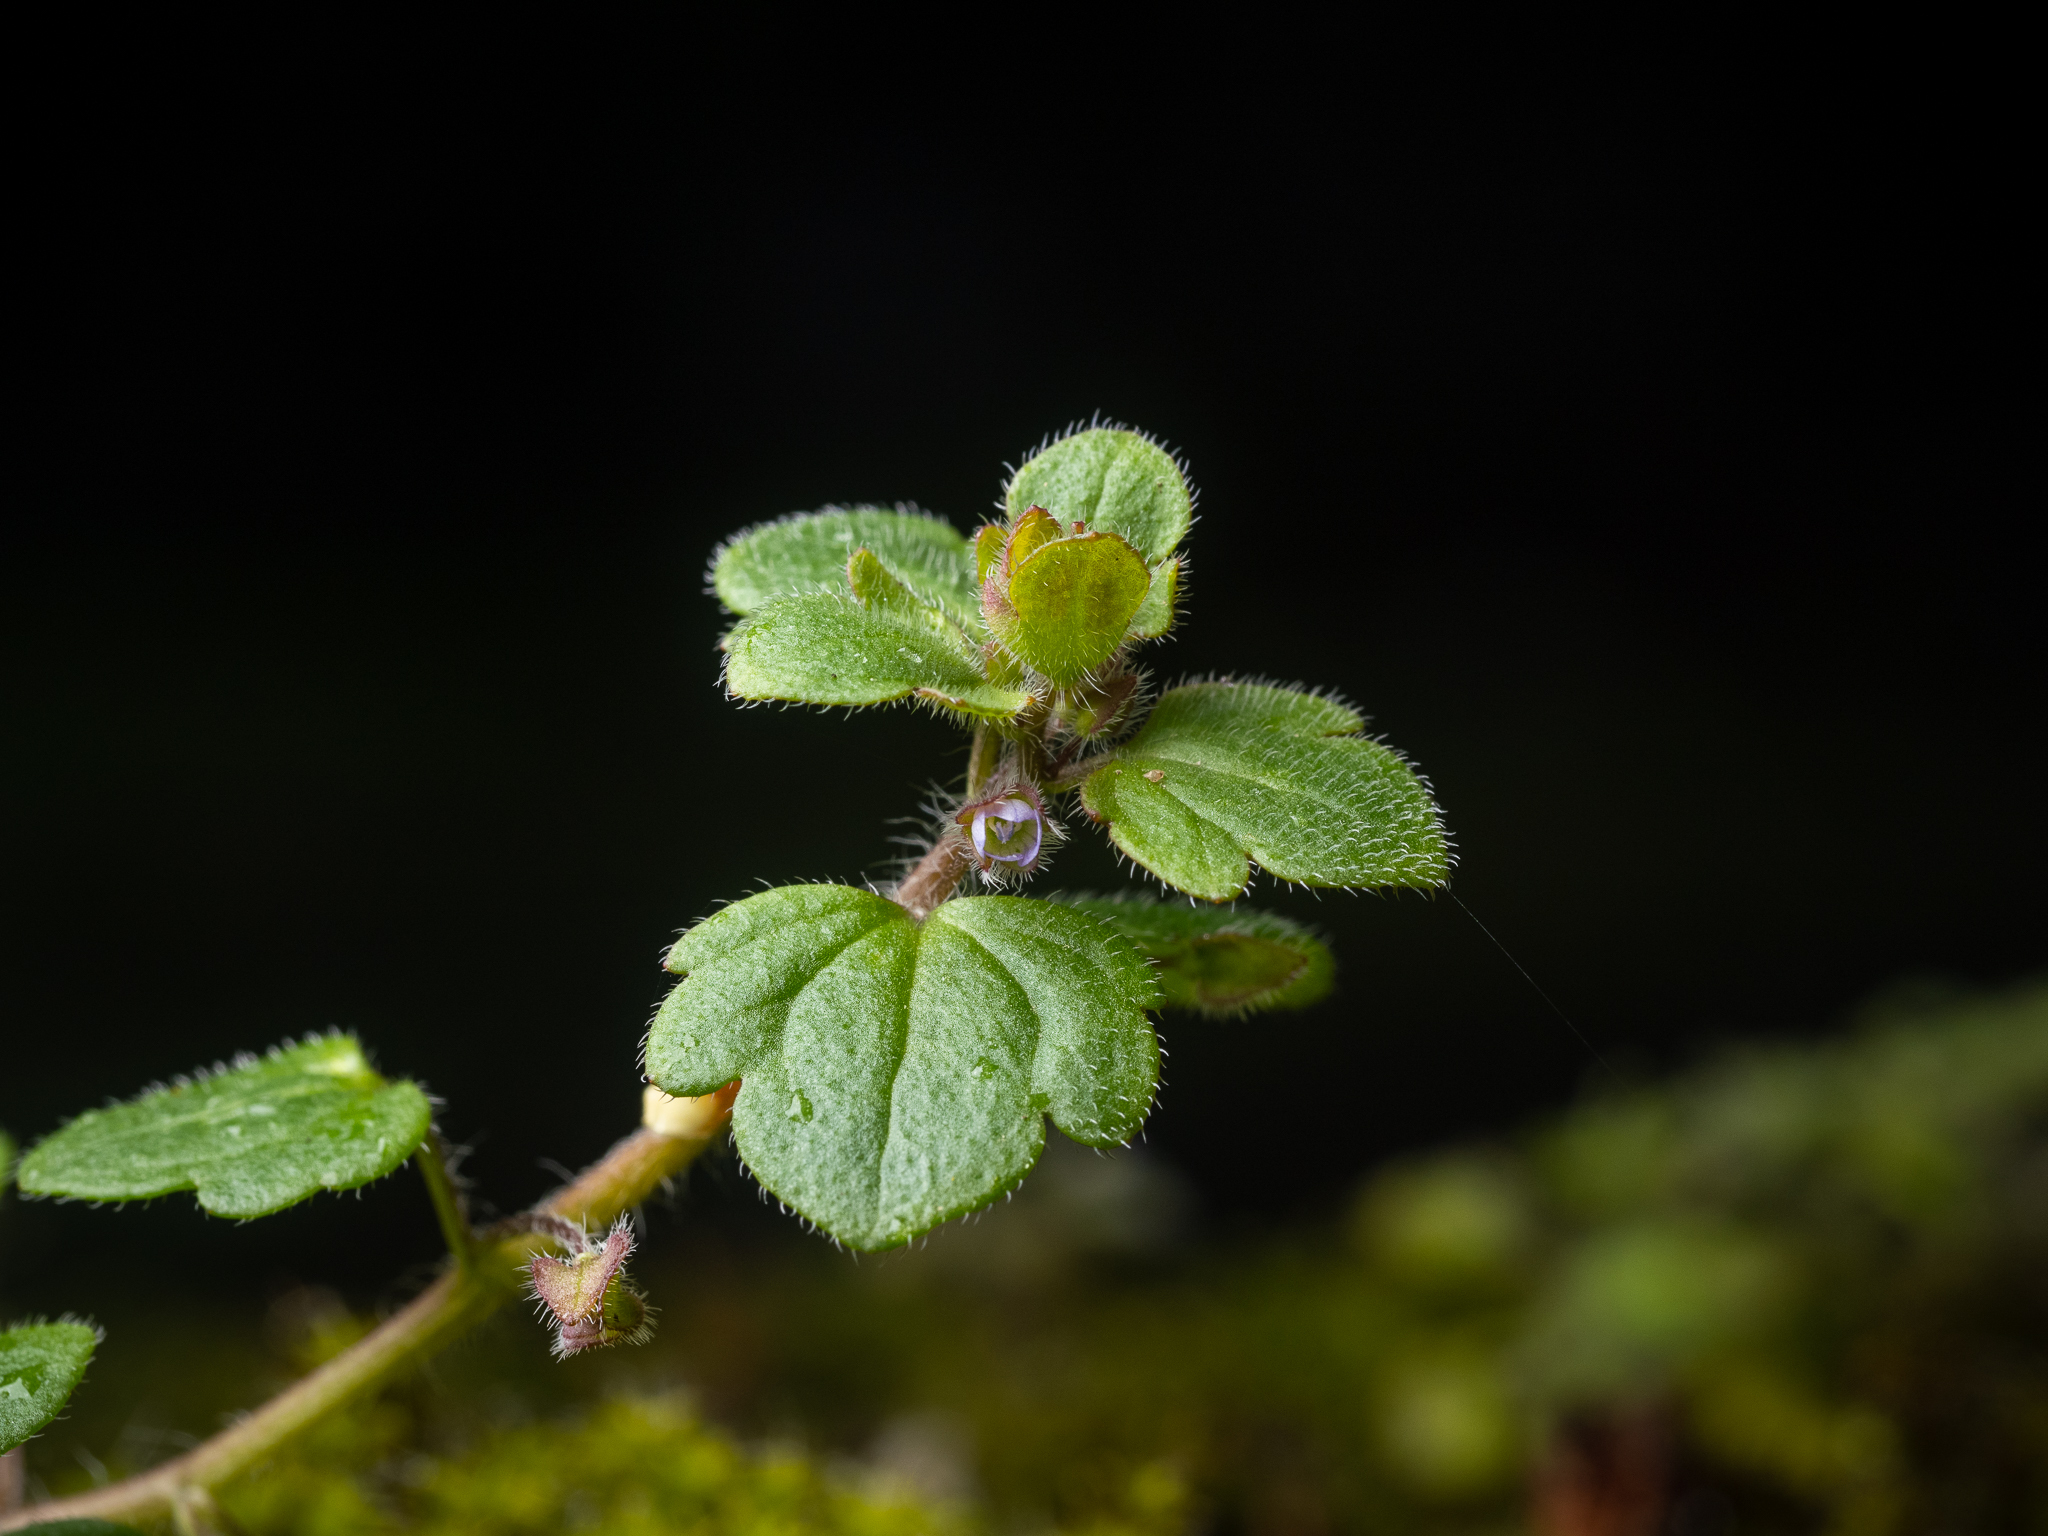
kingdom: Plantae
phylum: Tracheophyta
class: Magnoliopsida
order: Lamiales
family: Plantaginaceae
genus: Veronica
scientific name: Veronica sublobata
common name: False ivy-leaved speedwell
